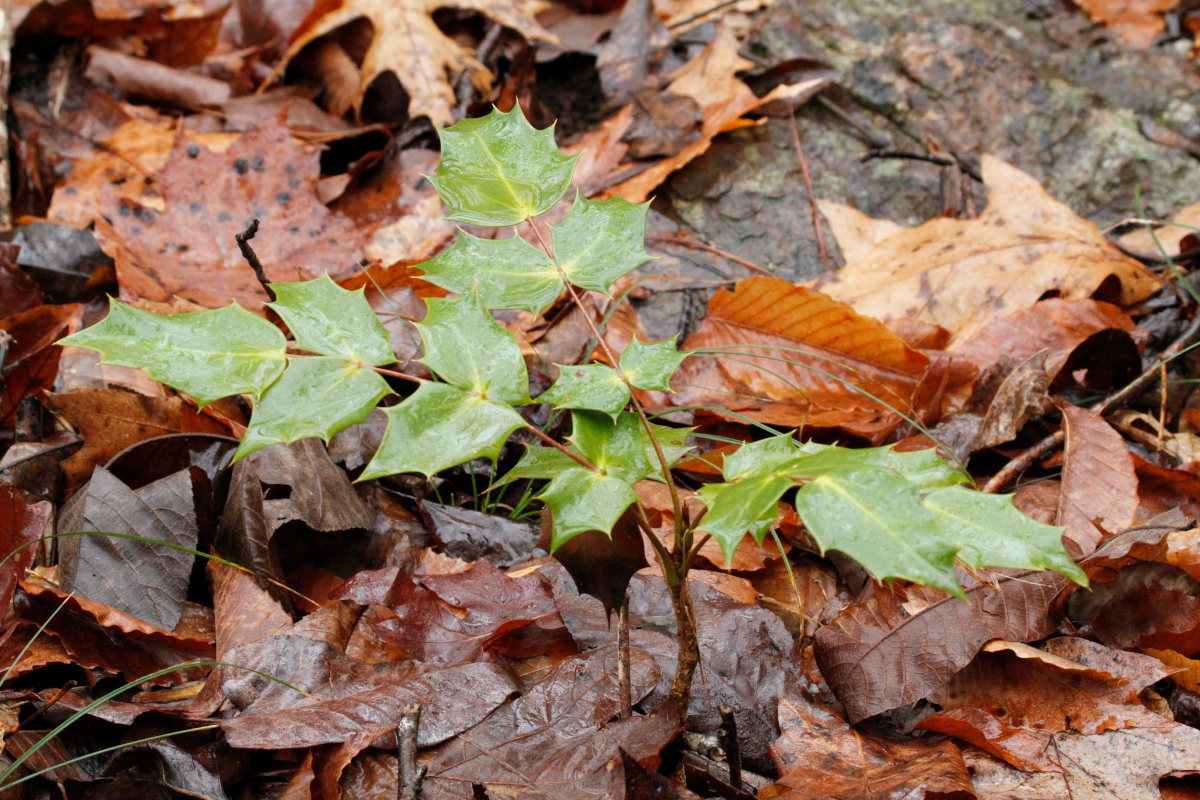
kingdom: Plantae
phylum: Tracheophyta
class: Magnoliopsida
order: Ranunculales
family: Berberidaceae
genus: Mahonia
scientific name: Mahonia bealei
